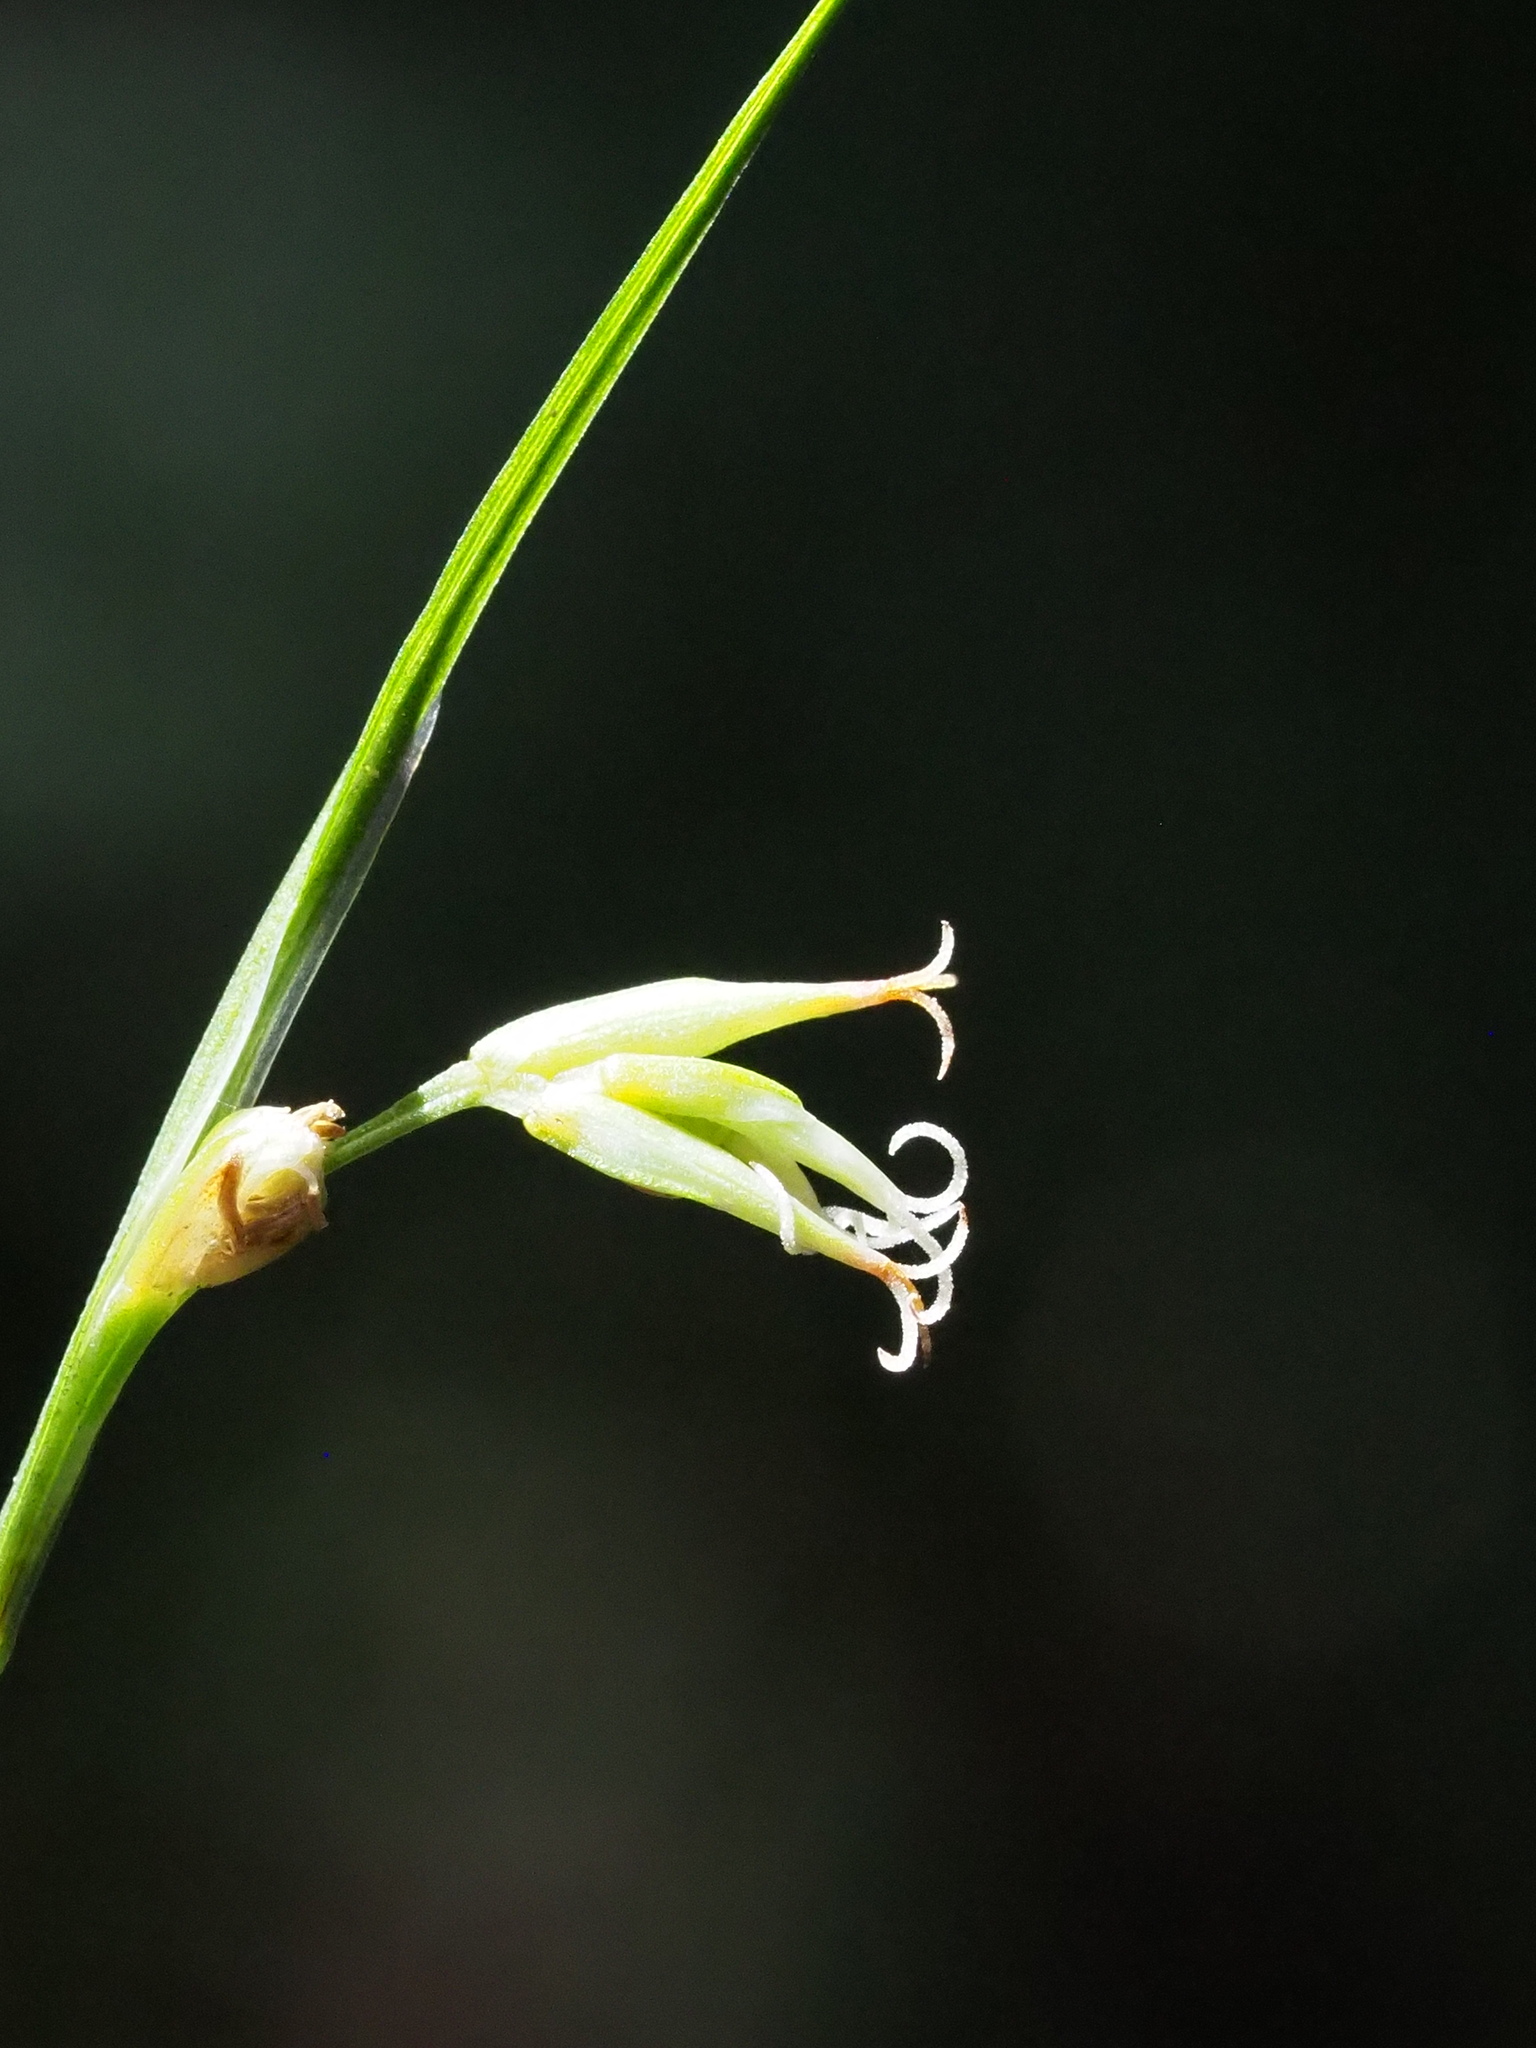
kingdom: Plantae
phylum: Tracheophyta
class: Liliopsida
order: Poales
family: Cyperaceae
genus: Carex
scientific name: Carex arisanensis
